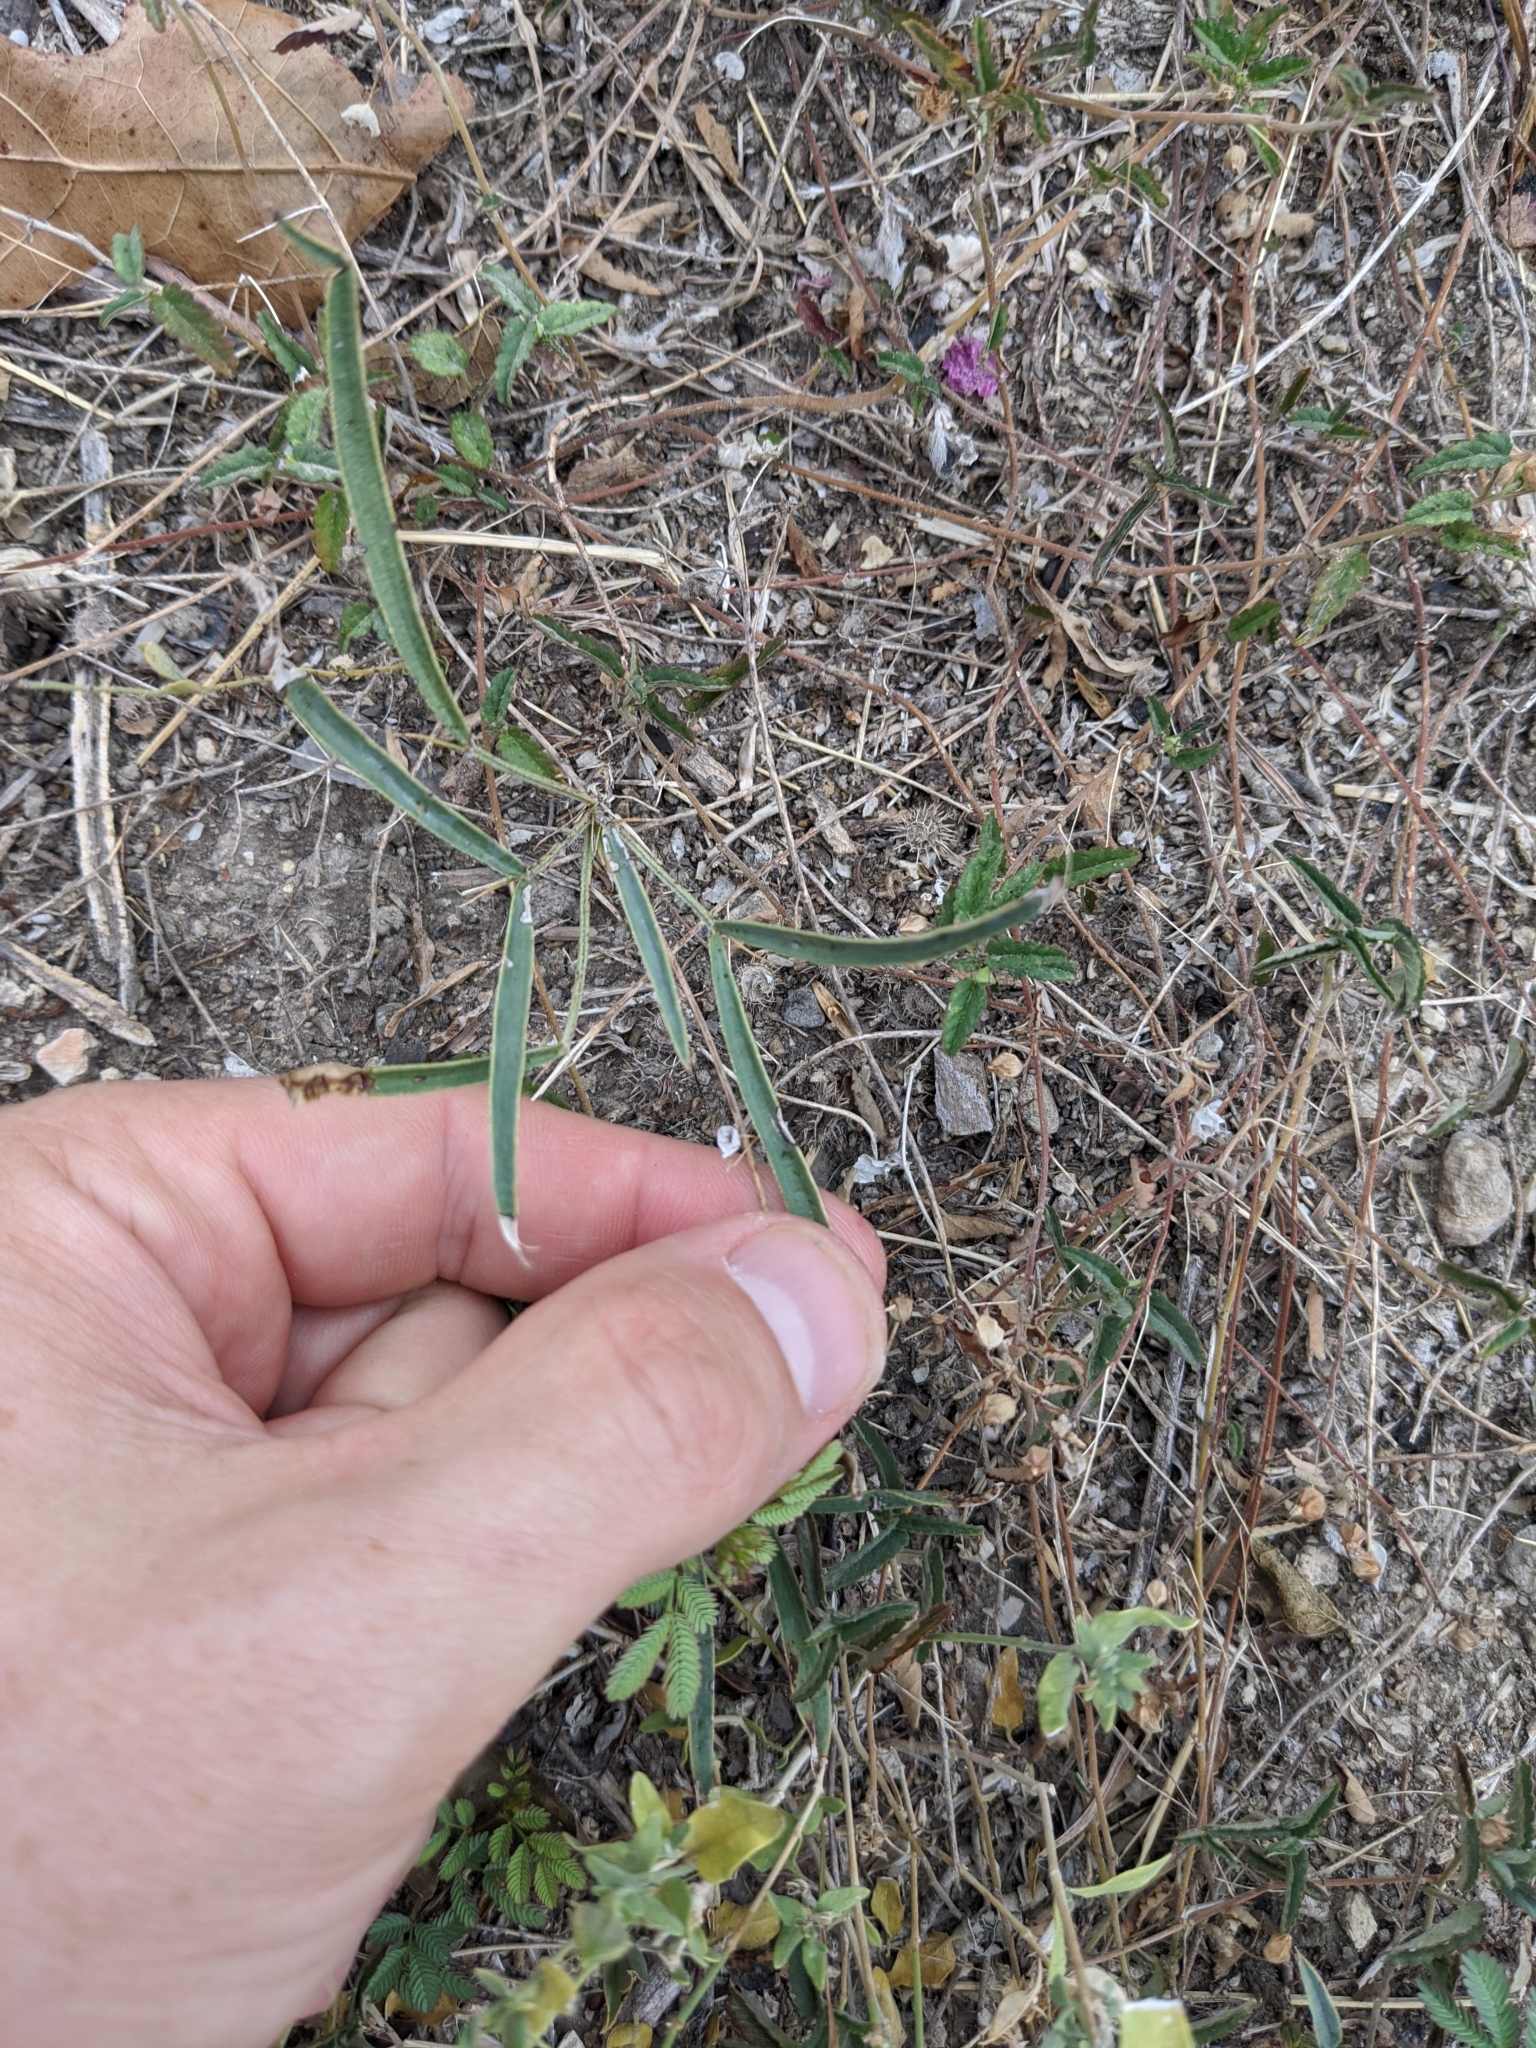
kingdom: Plantae
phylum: Tracheophyta
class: Magnoliopsida
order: Fabales
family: Fabaceae
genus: Senna
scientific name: Senna pumilio
